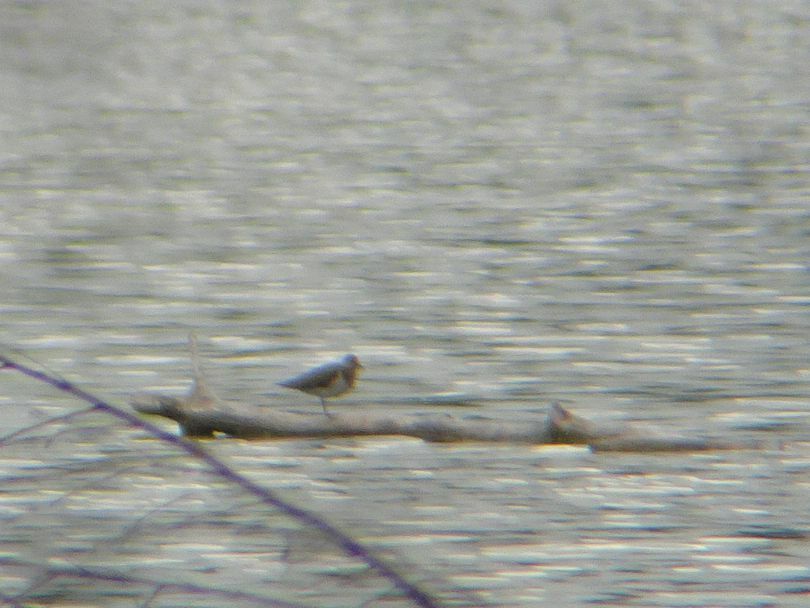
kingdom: Animalia
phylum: Chordata
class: Aves
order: Charadriiformes
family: Scolopacidae
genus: Actitis
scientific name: Actitis hypoleucos
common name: Common sandpiper
